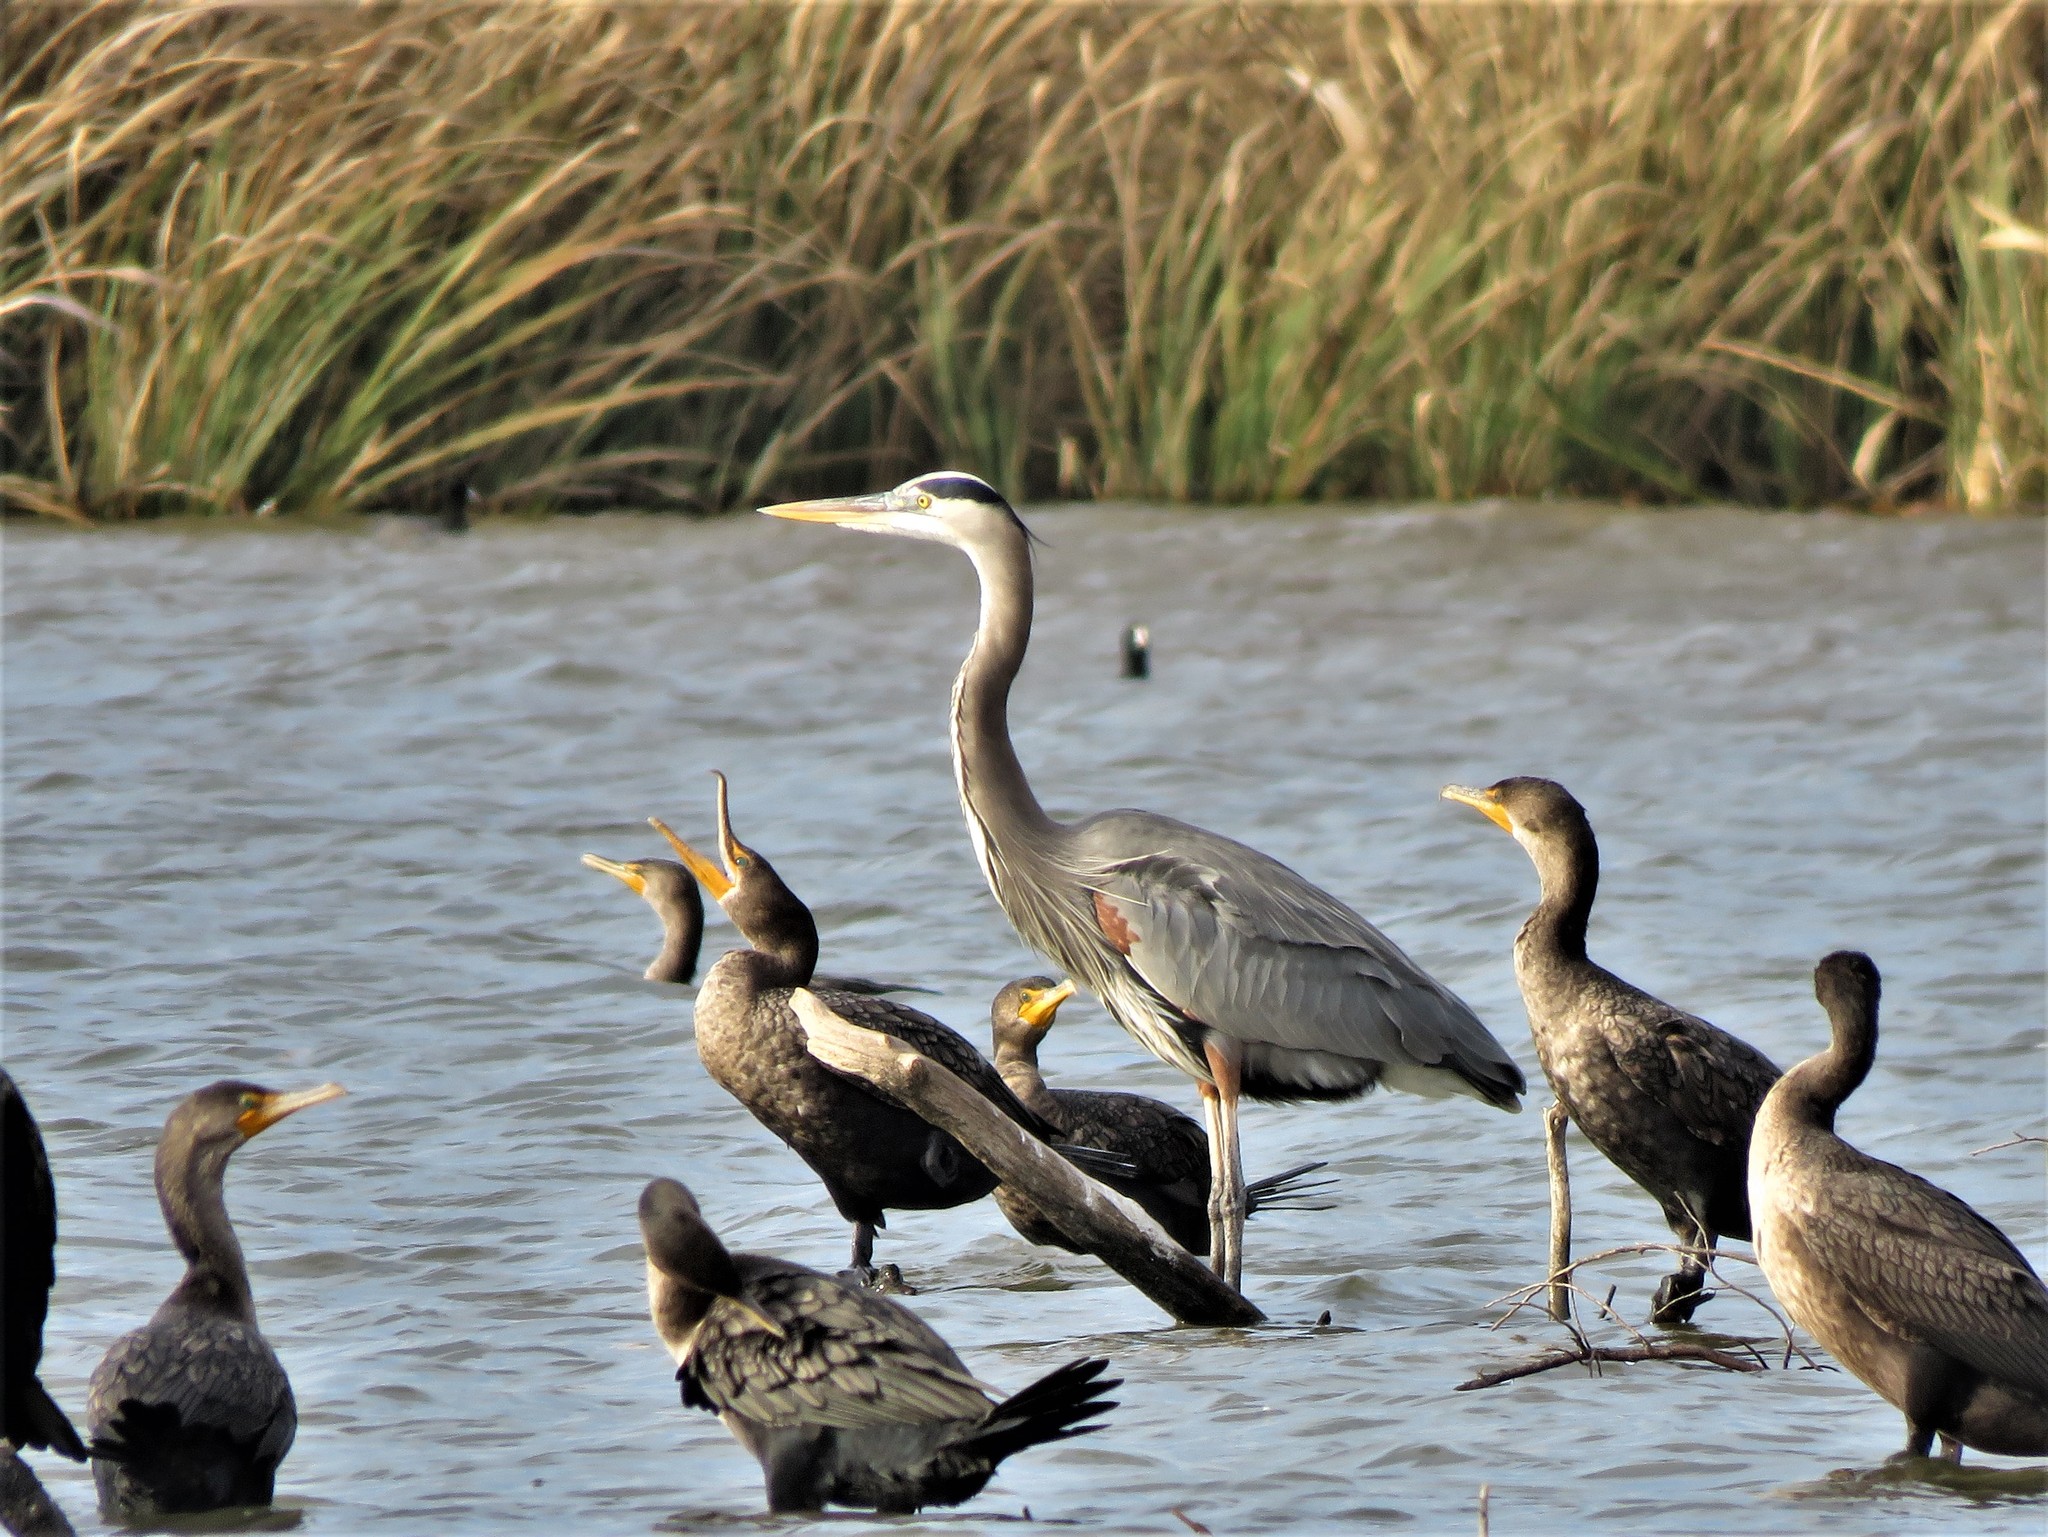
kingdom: Animalia
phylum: Chordata
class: Aves
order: Pelecaniformes
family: Ardeidae
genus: Ardea
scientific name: Ardea herodias
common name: Great blue heron
